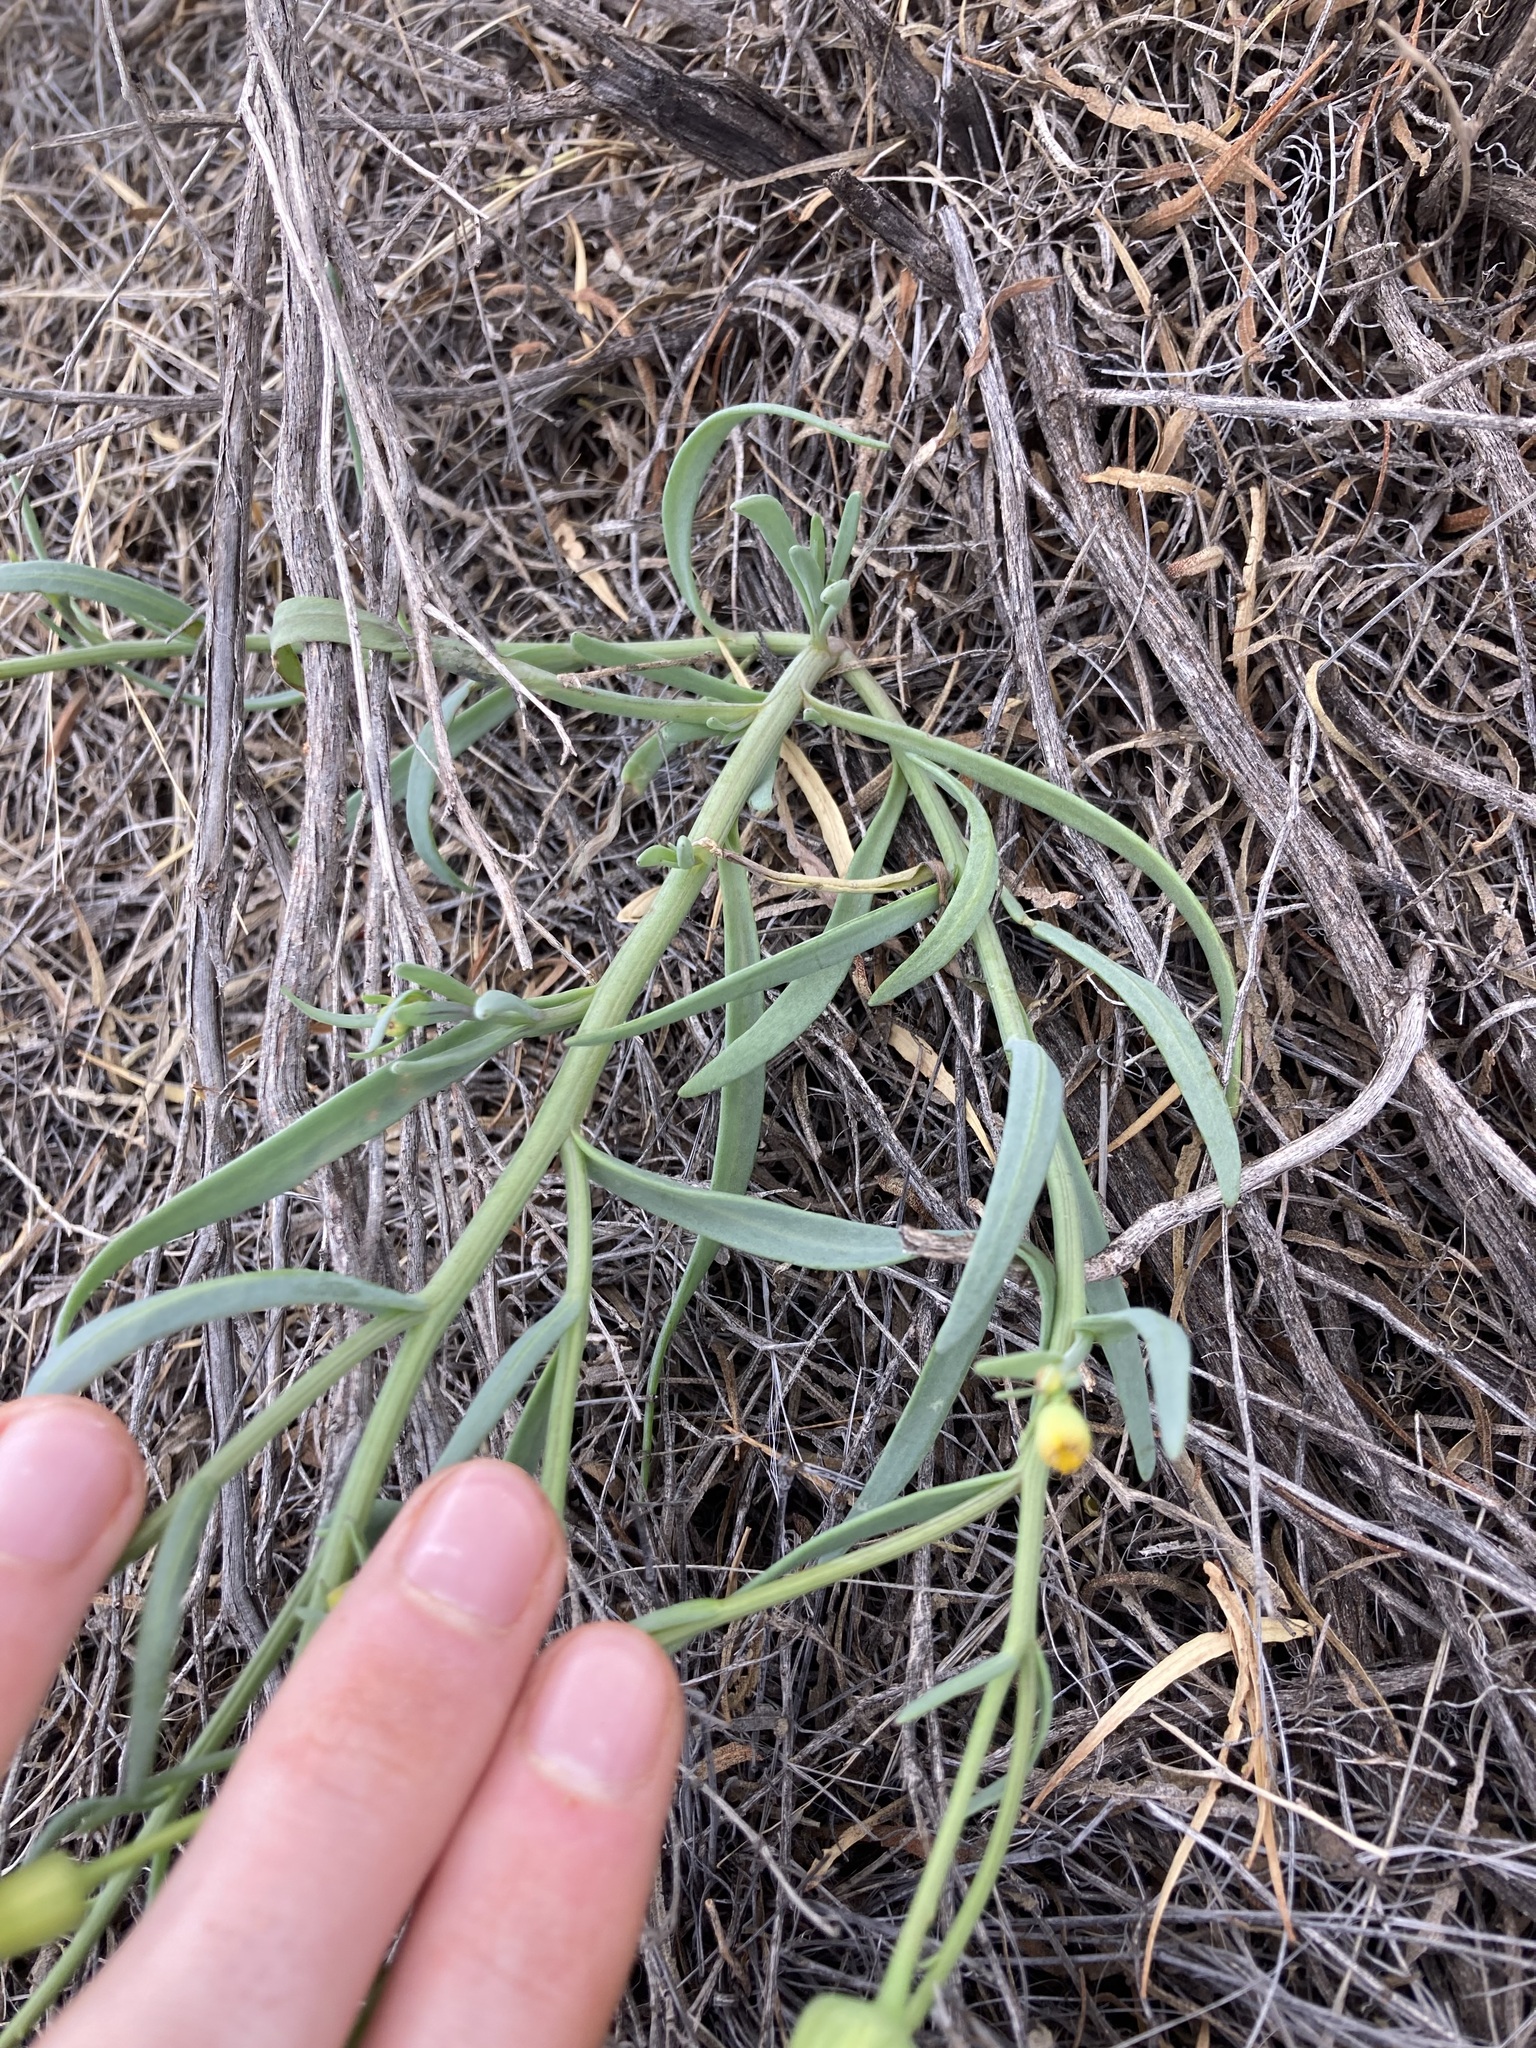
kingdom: Plantae
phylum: Tracheophyta
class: Magnoliopsida
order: Asterales
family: Asteraceae
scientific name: Asteraceae
